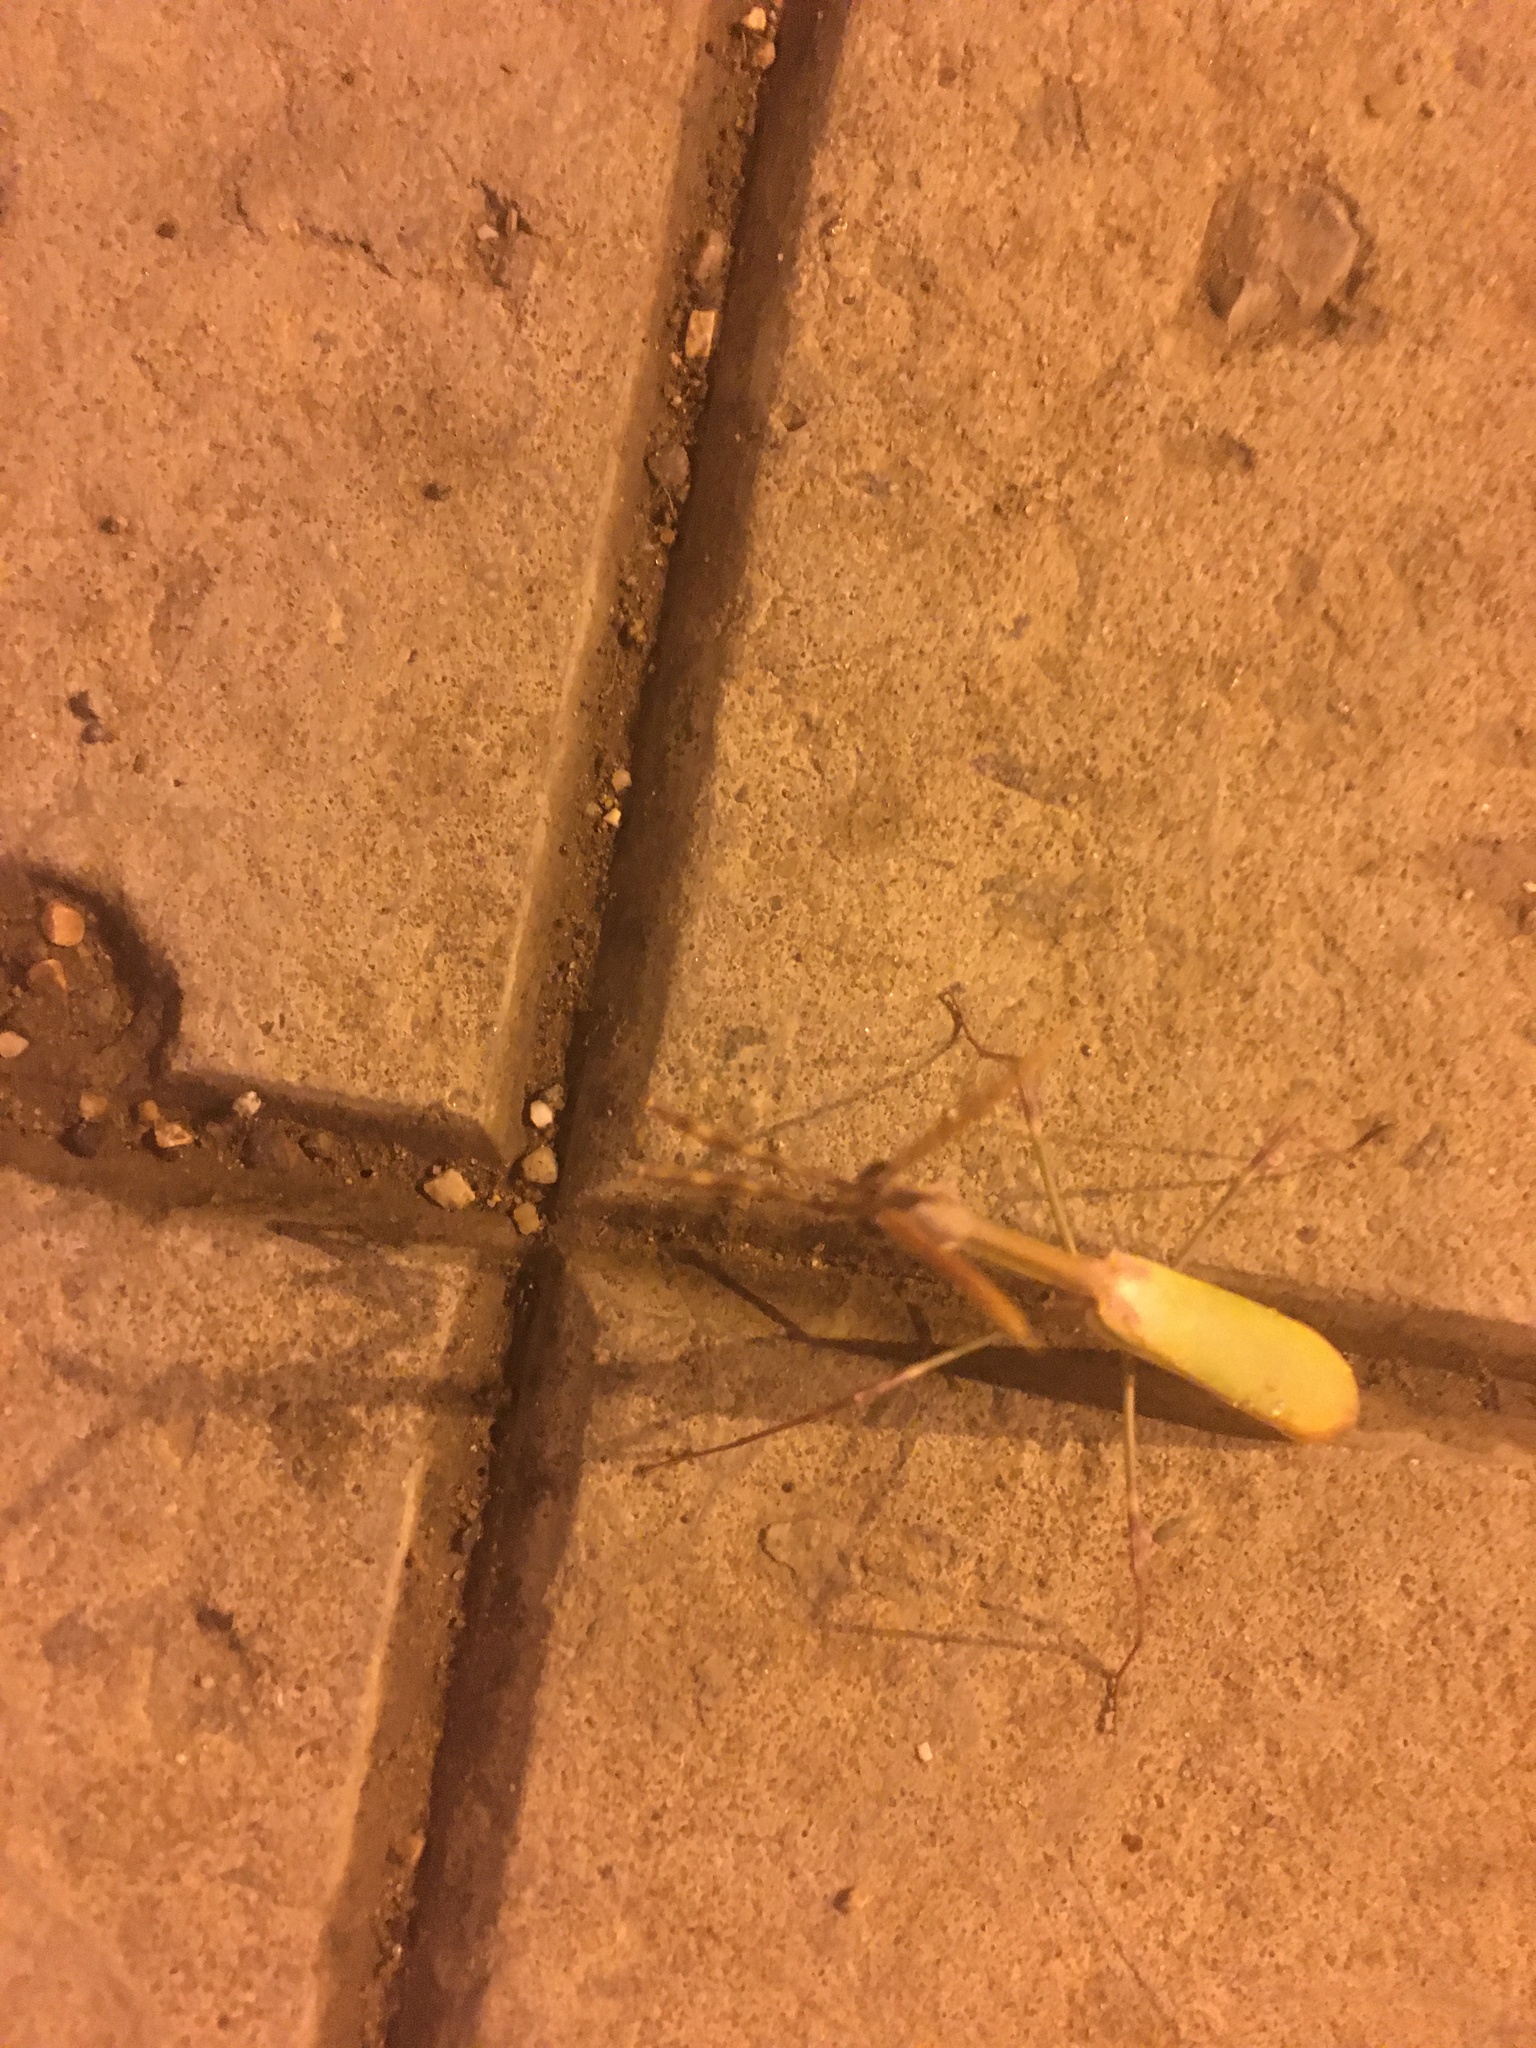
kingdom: Animalia
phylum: Arthropoda
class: Insecta
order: Mantodea
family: Empusidae
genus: Empusa
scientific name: Empusa fasciata
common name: Devil's mare
